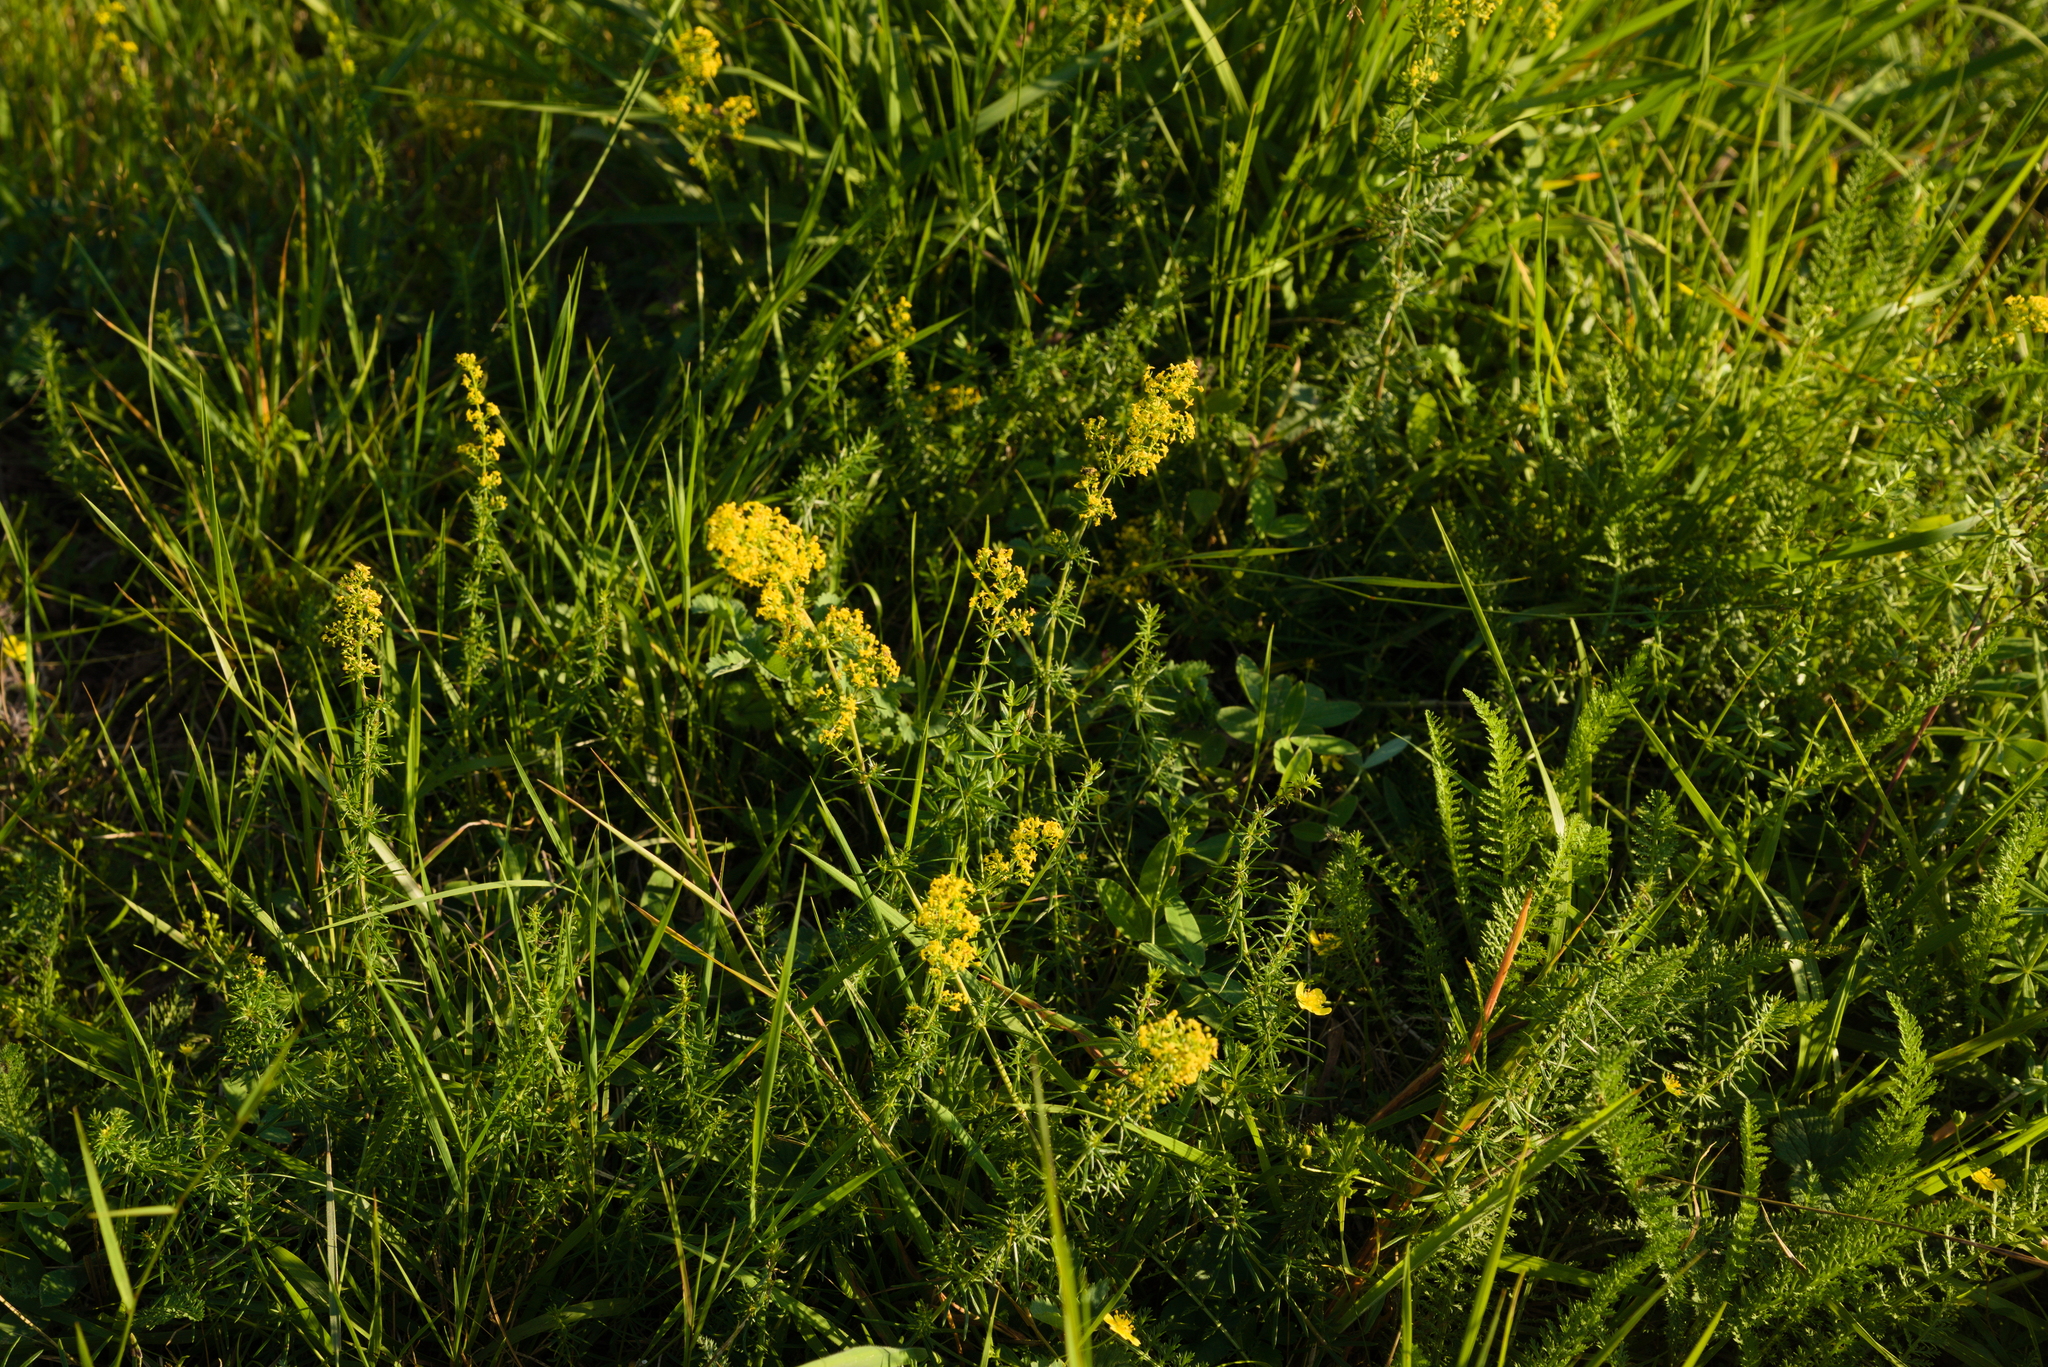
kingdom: Plantae
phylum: Tracheophyta
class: Magnoliopsida
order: Gentianales
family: Rubiaceae
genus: Galium
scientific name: Galium verum
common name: Lady's bedstraw
